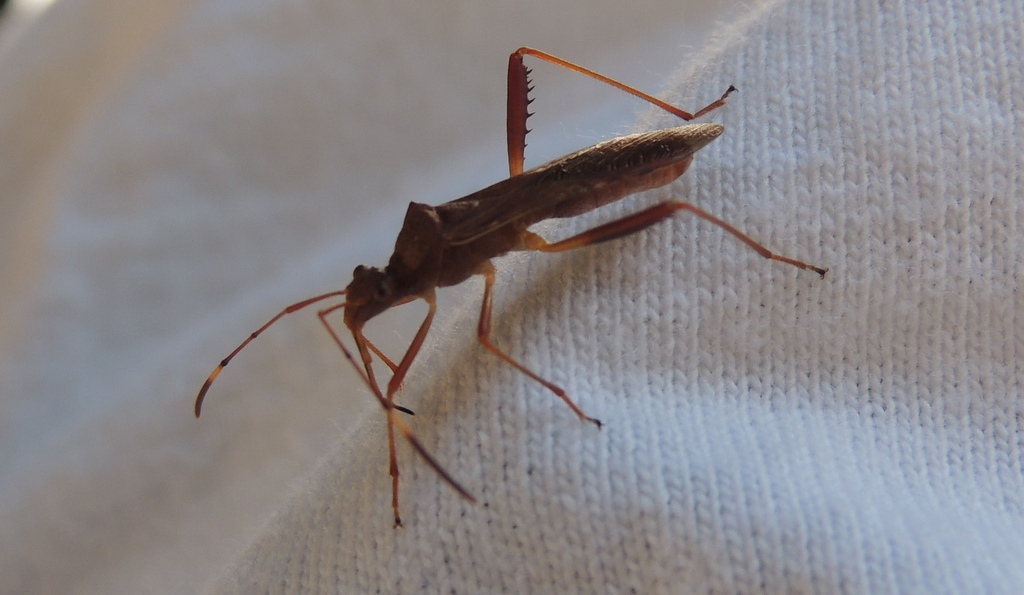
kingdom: Animalia
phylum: Arthropoda
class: Insecta
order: Hemiptera
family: Alydidae
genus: Megalotomus
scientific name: Megalotomus quinquespinosus
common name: Lupine bug
